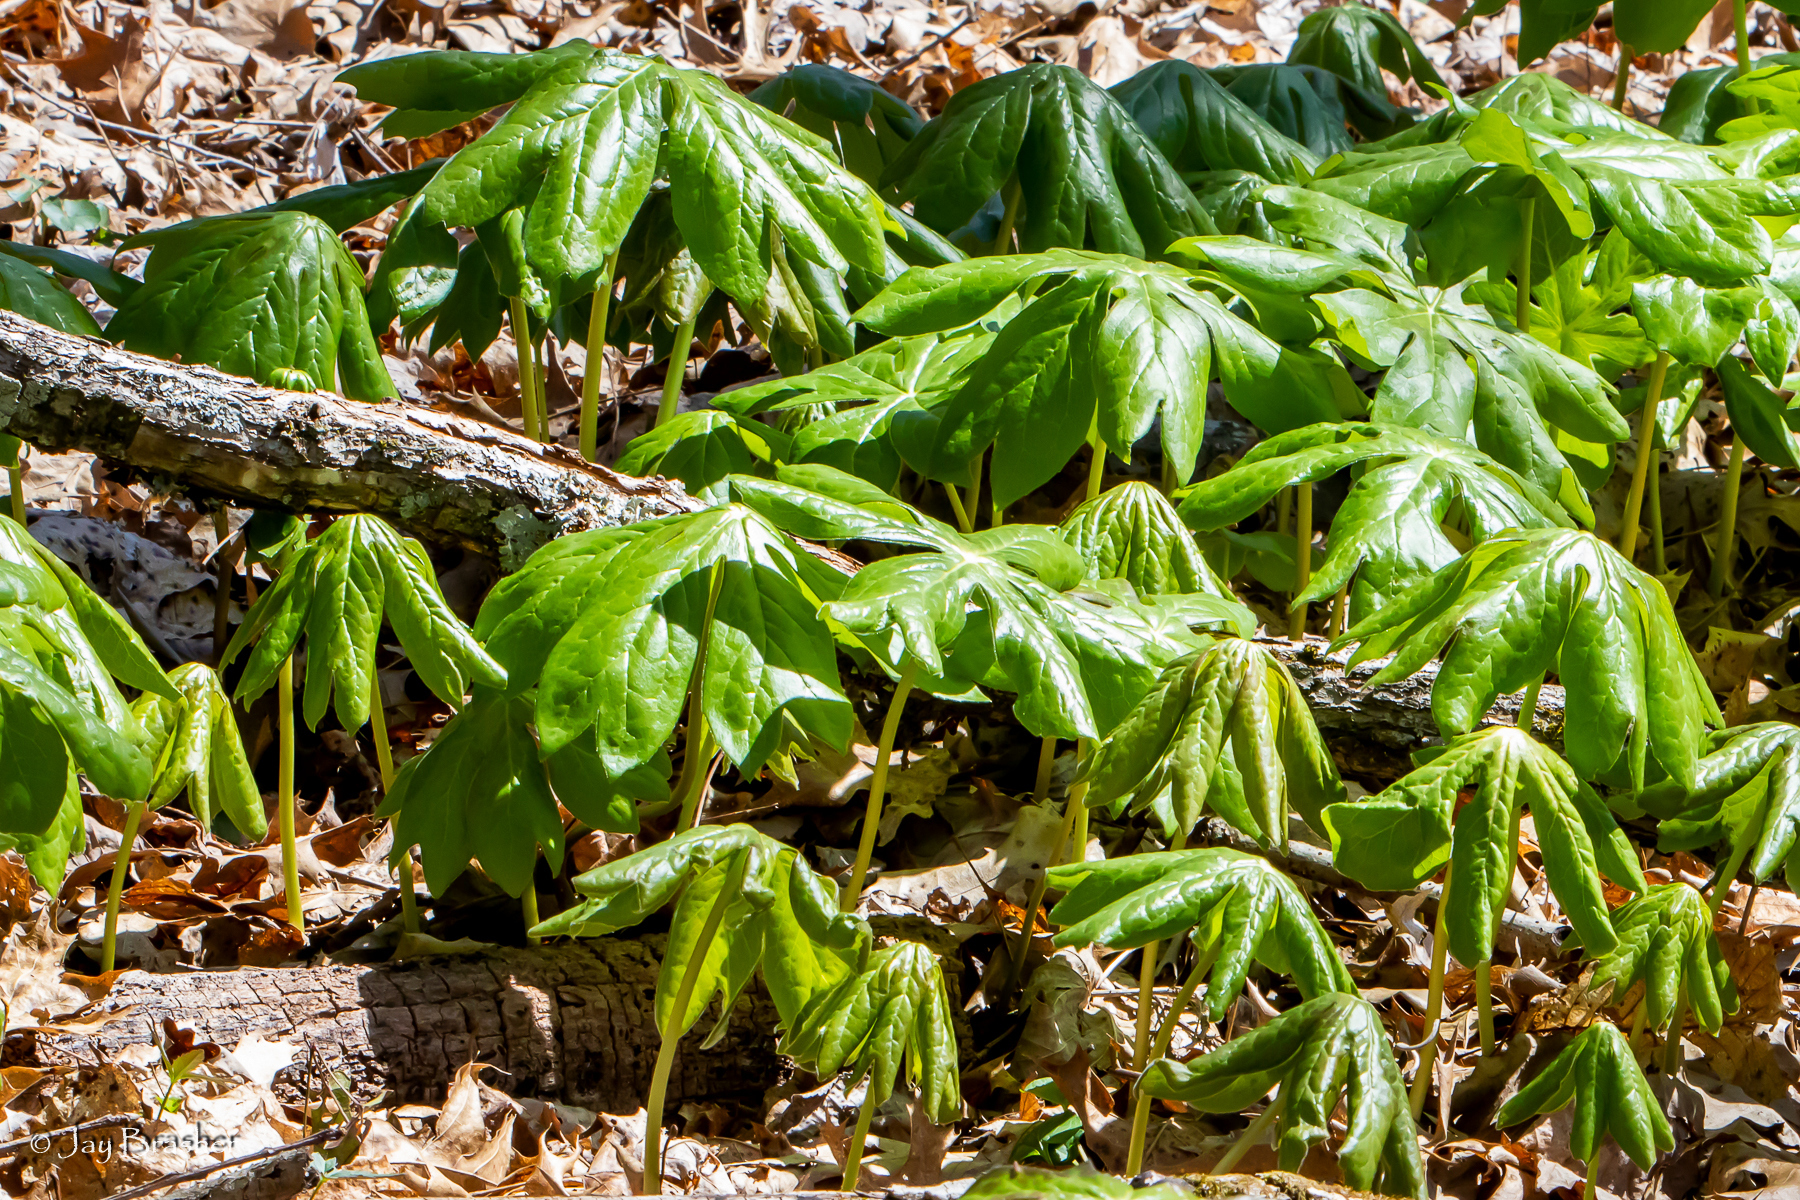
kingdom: Plantae
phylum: Tracheophyta
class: Magnoliopsida
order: Ranunculales
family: Berberidaceae
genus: Podophyllum
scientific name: Podophyllum peltatum
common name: Wild mandrake
